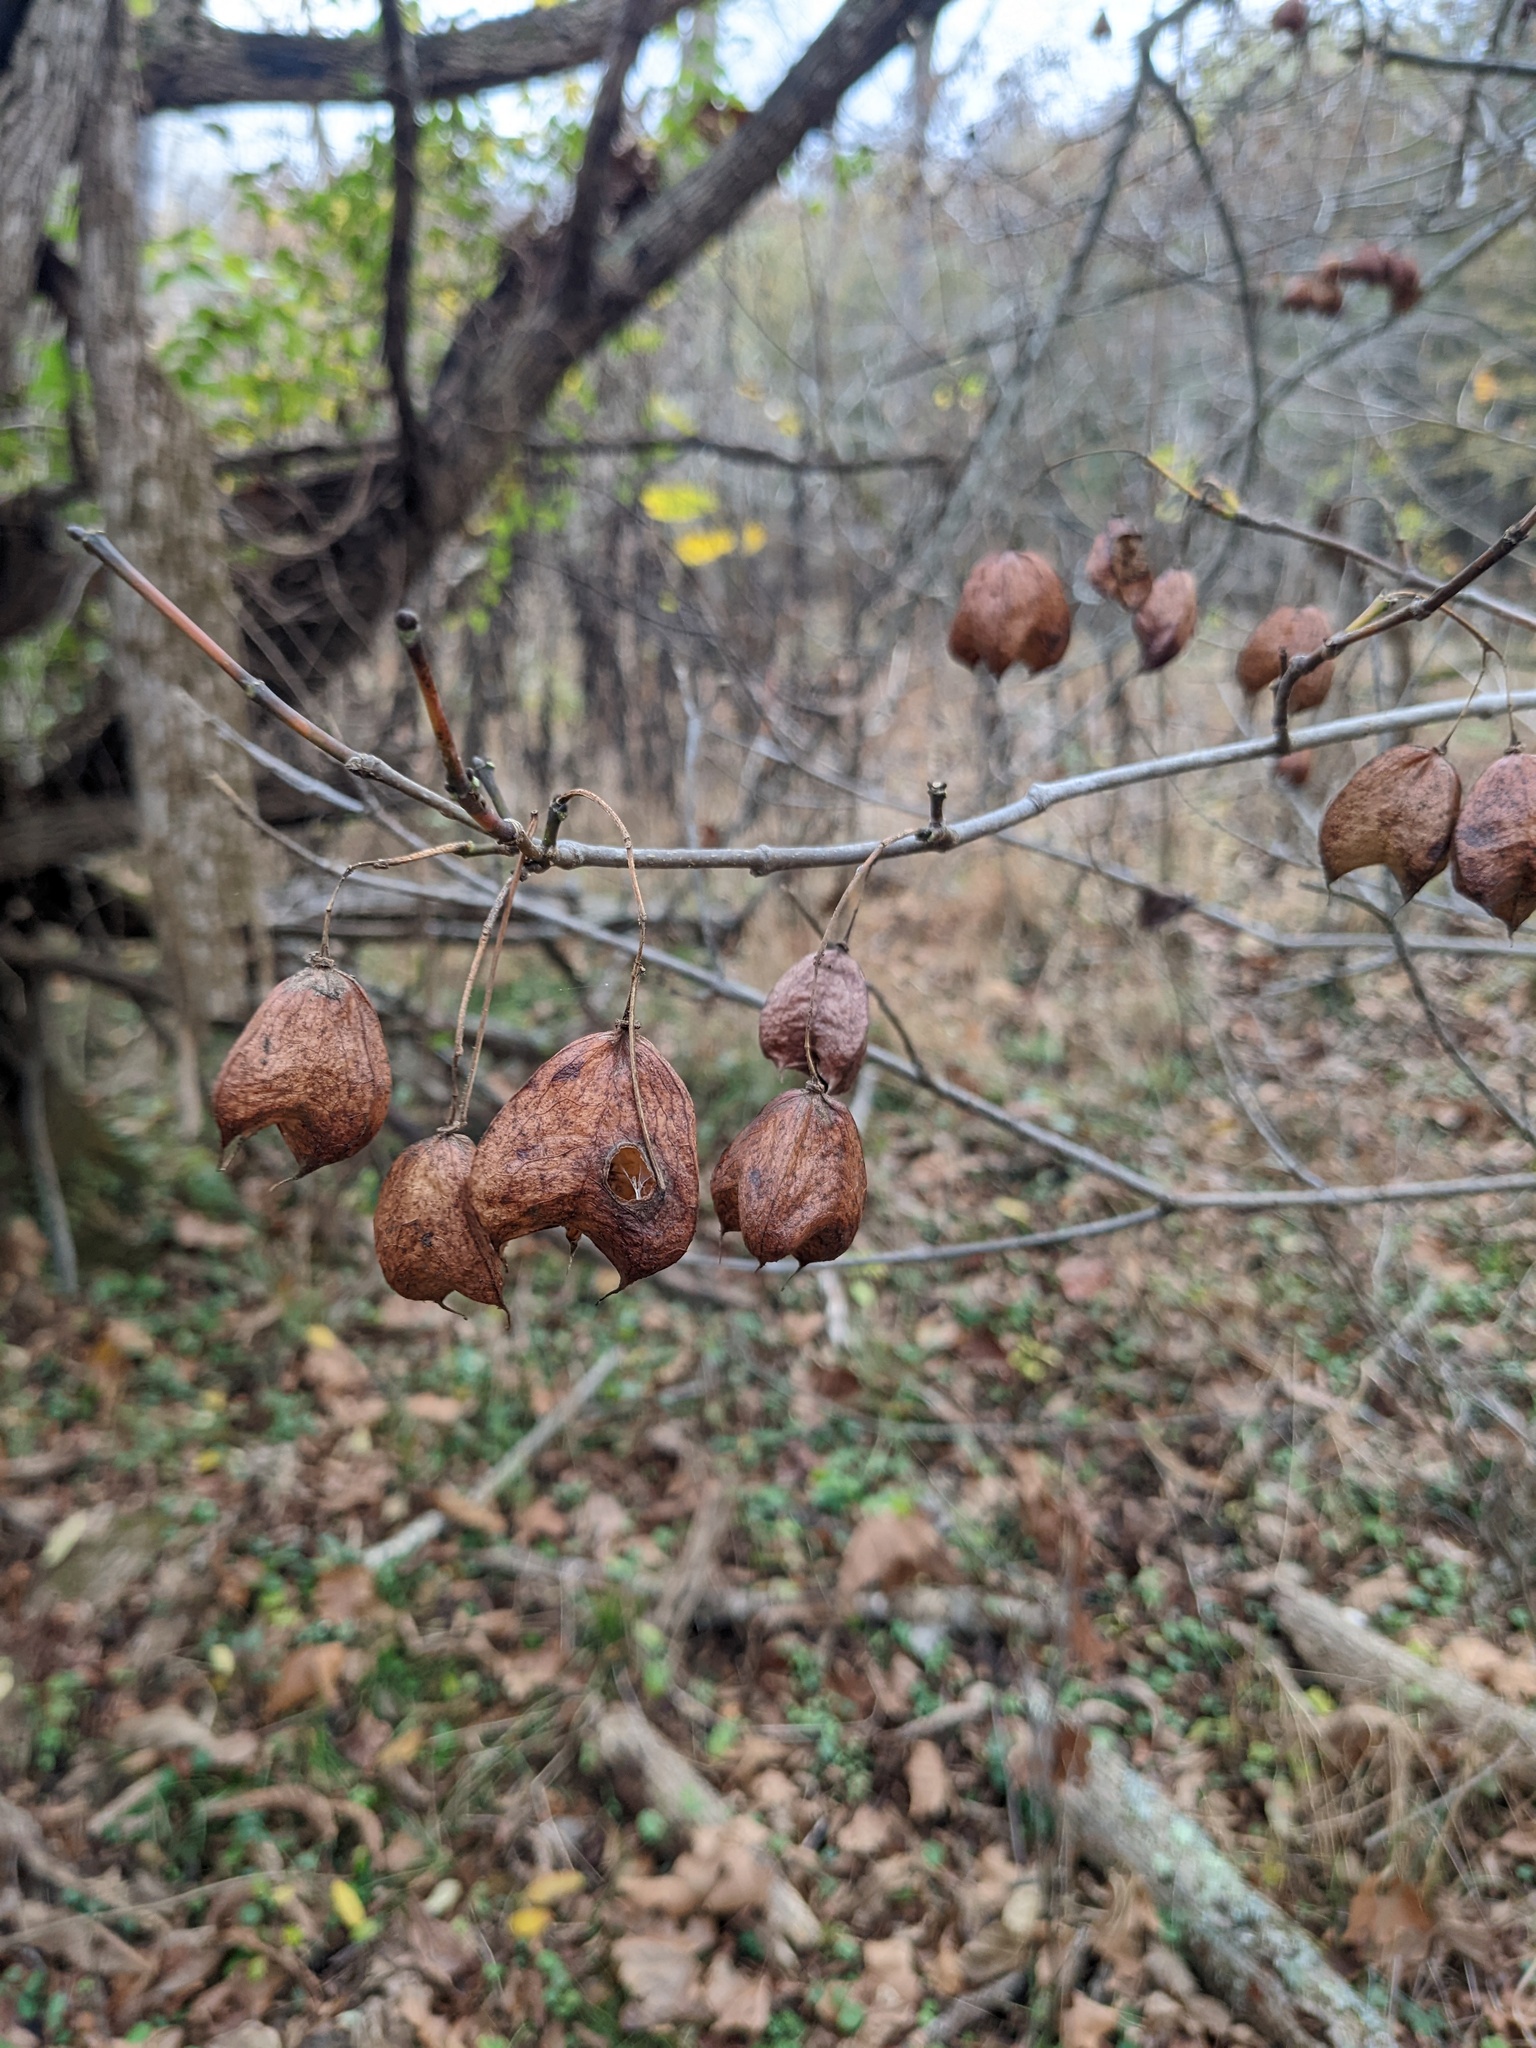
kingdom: Plantae
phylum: Tracheophyta
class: Magnoliopsida
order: Crossosomatales
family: Staphyleaceae
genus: Staphylea
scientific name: Staphylea trifolia
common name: American bladdernut
